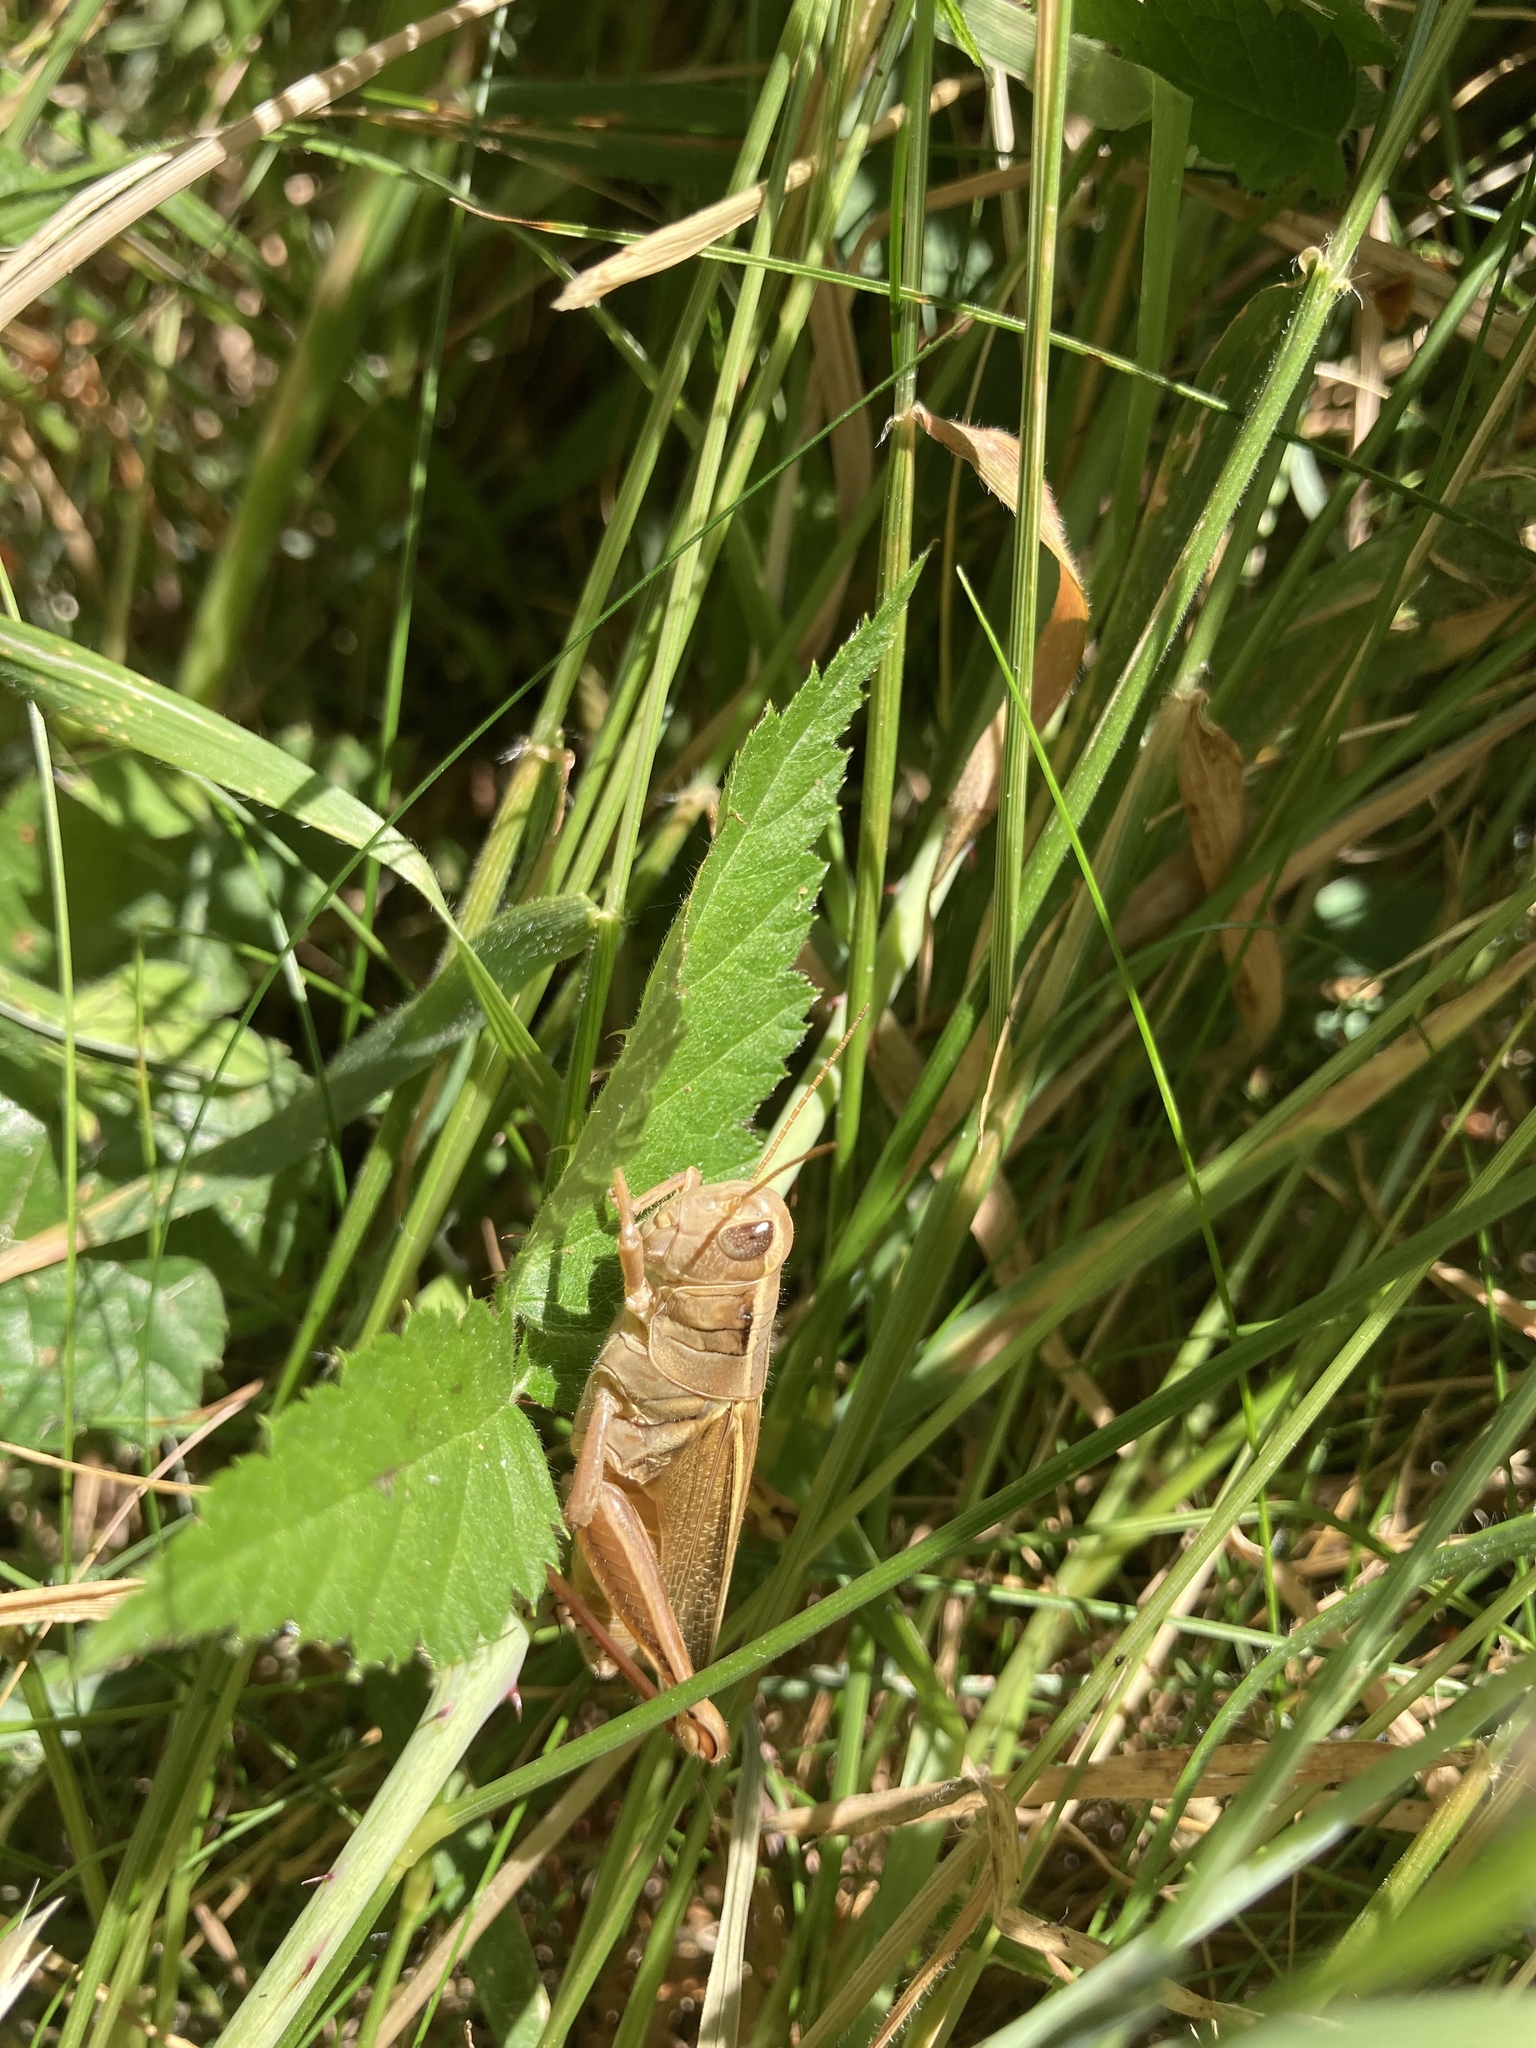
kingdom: Animalia
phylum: Arthropoda
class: Insecta
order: Orthoptera
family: Acrididae
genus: Melanoplus
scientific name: Melanoplus bivittatus
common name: Two-striped grasshopper
